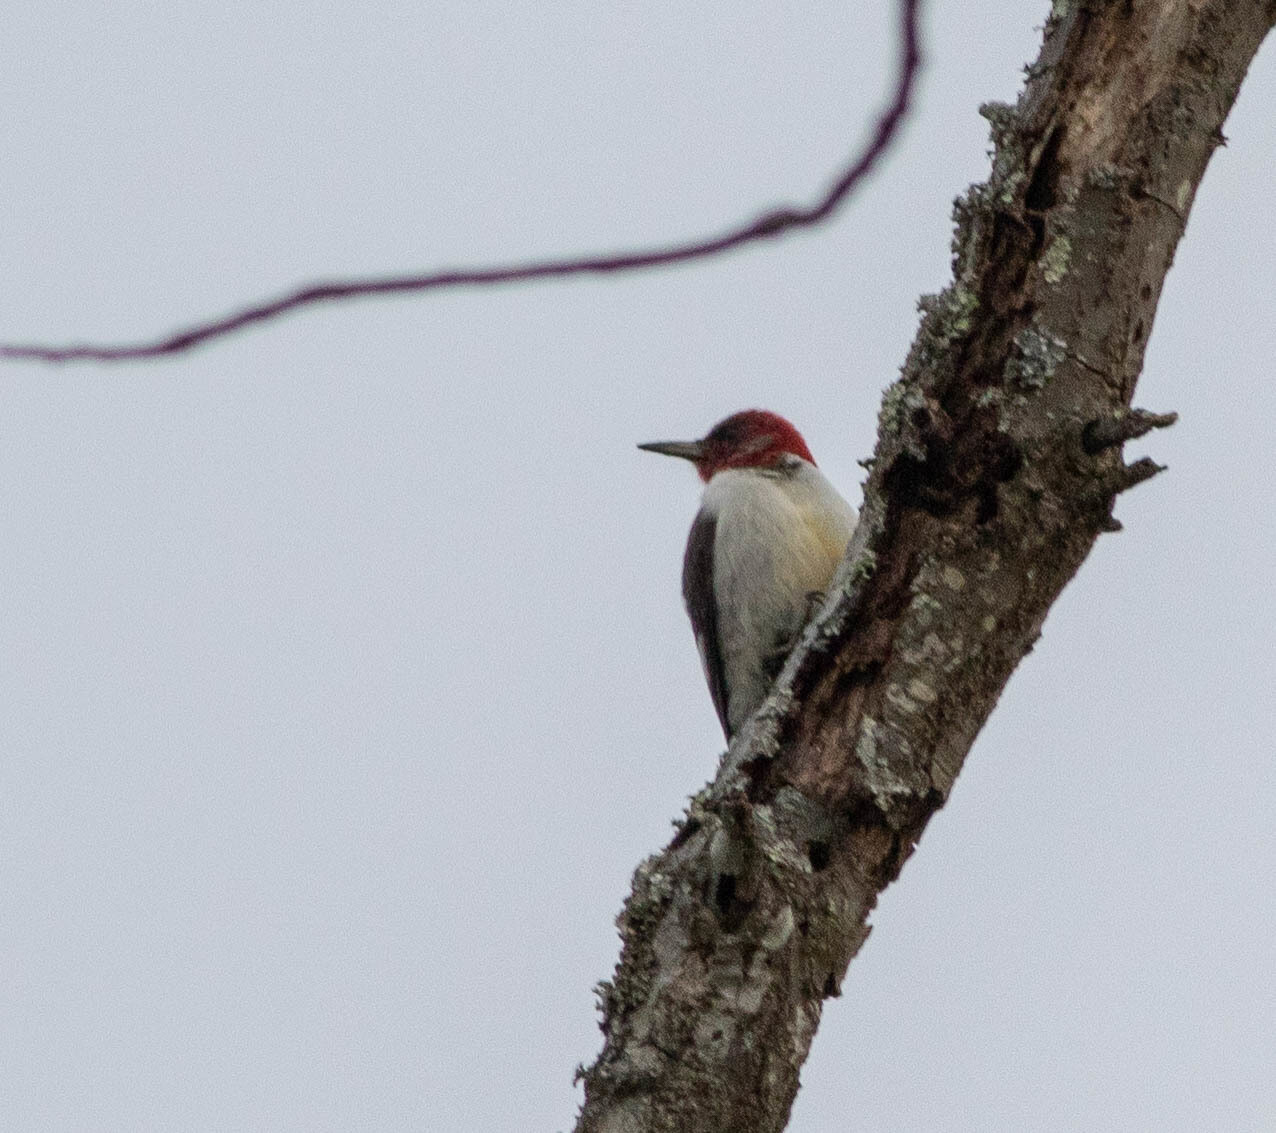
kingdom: Animalia
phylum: Chordata
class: Aves
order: Piciformes
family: Picidae
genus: Melanerpes
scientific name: Melanerpes erythrocephalus
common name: Red-headed woodpecker
